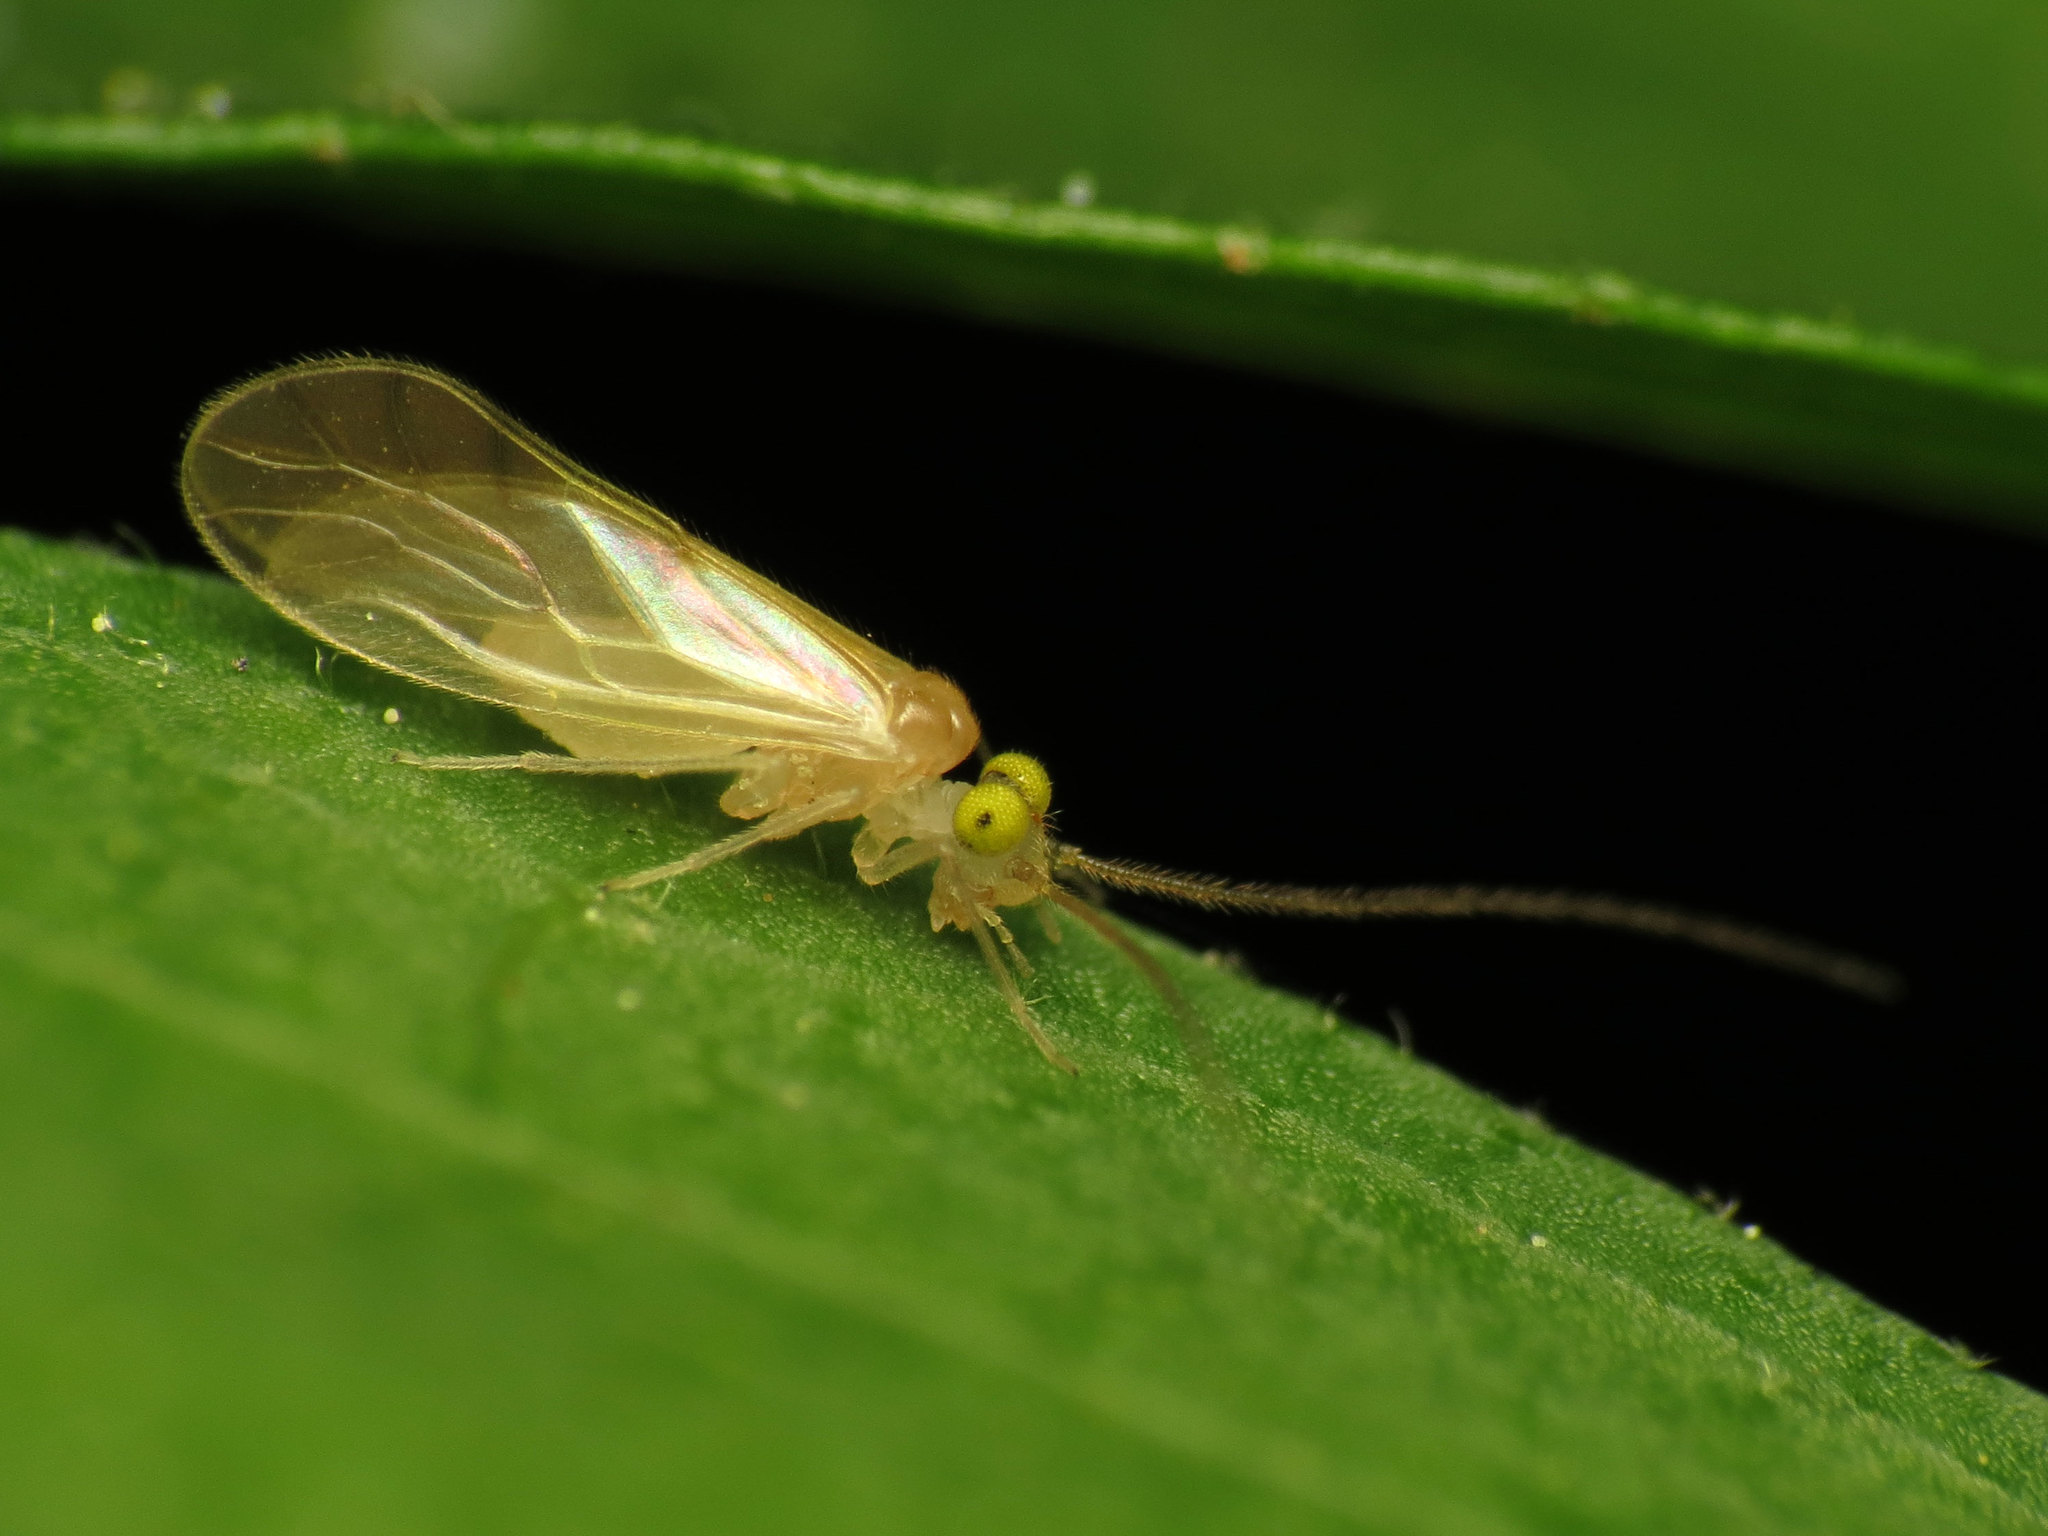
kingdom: Animalia
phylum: Arthropoda
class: Insecta
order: Psocodea
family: Paracaeciliidae
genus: Xanthocaecilius
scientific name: Xanthocaecilius sommermanae
